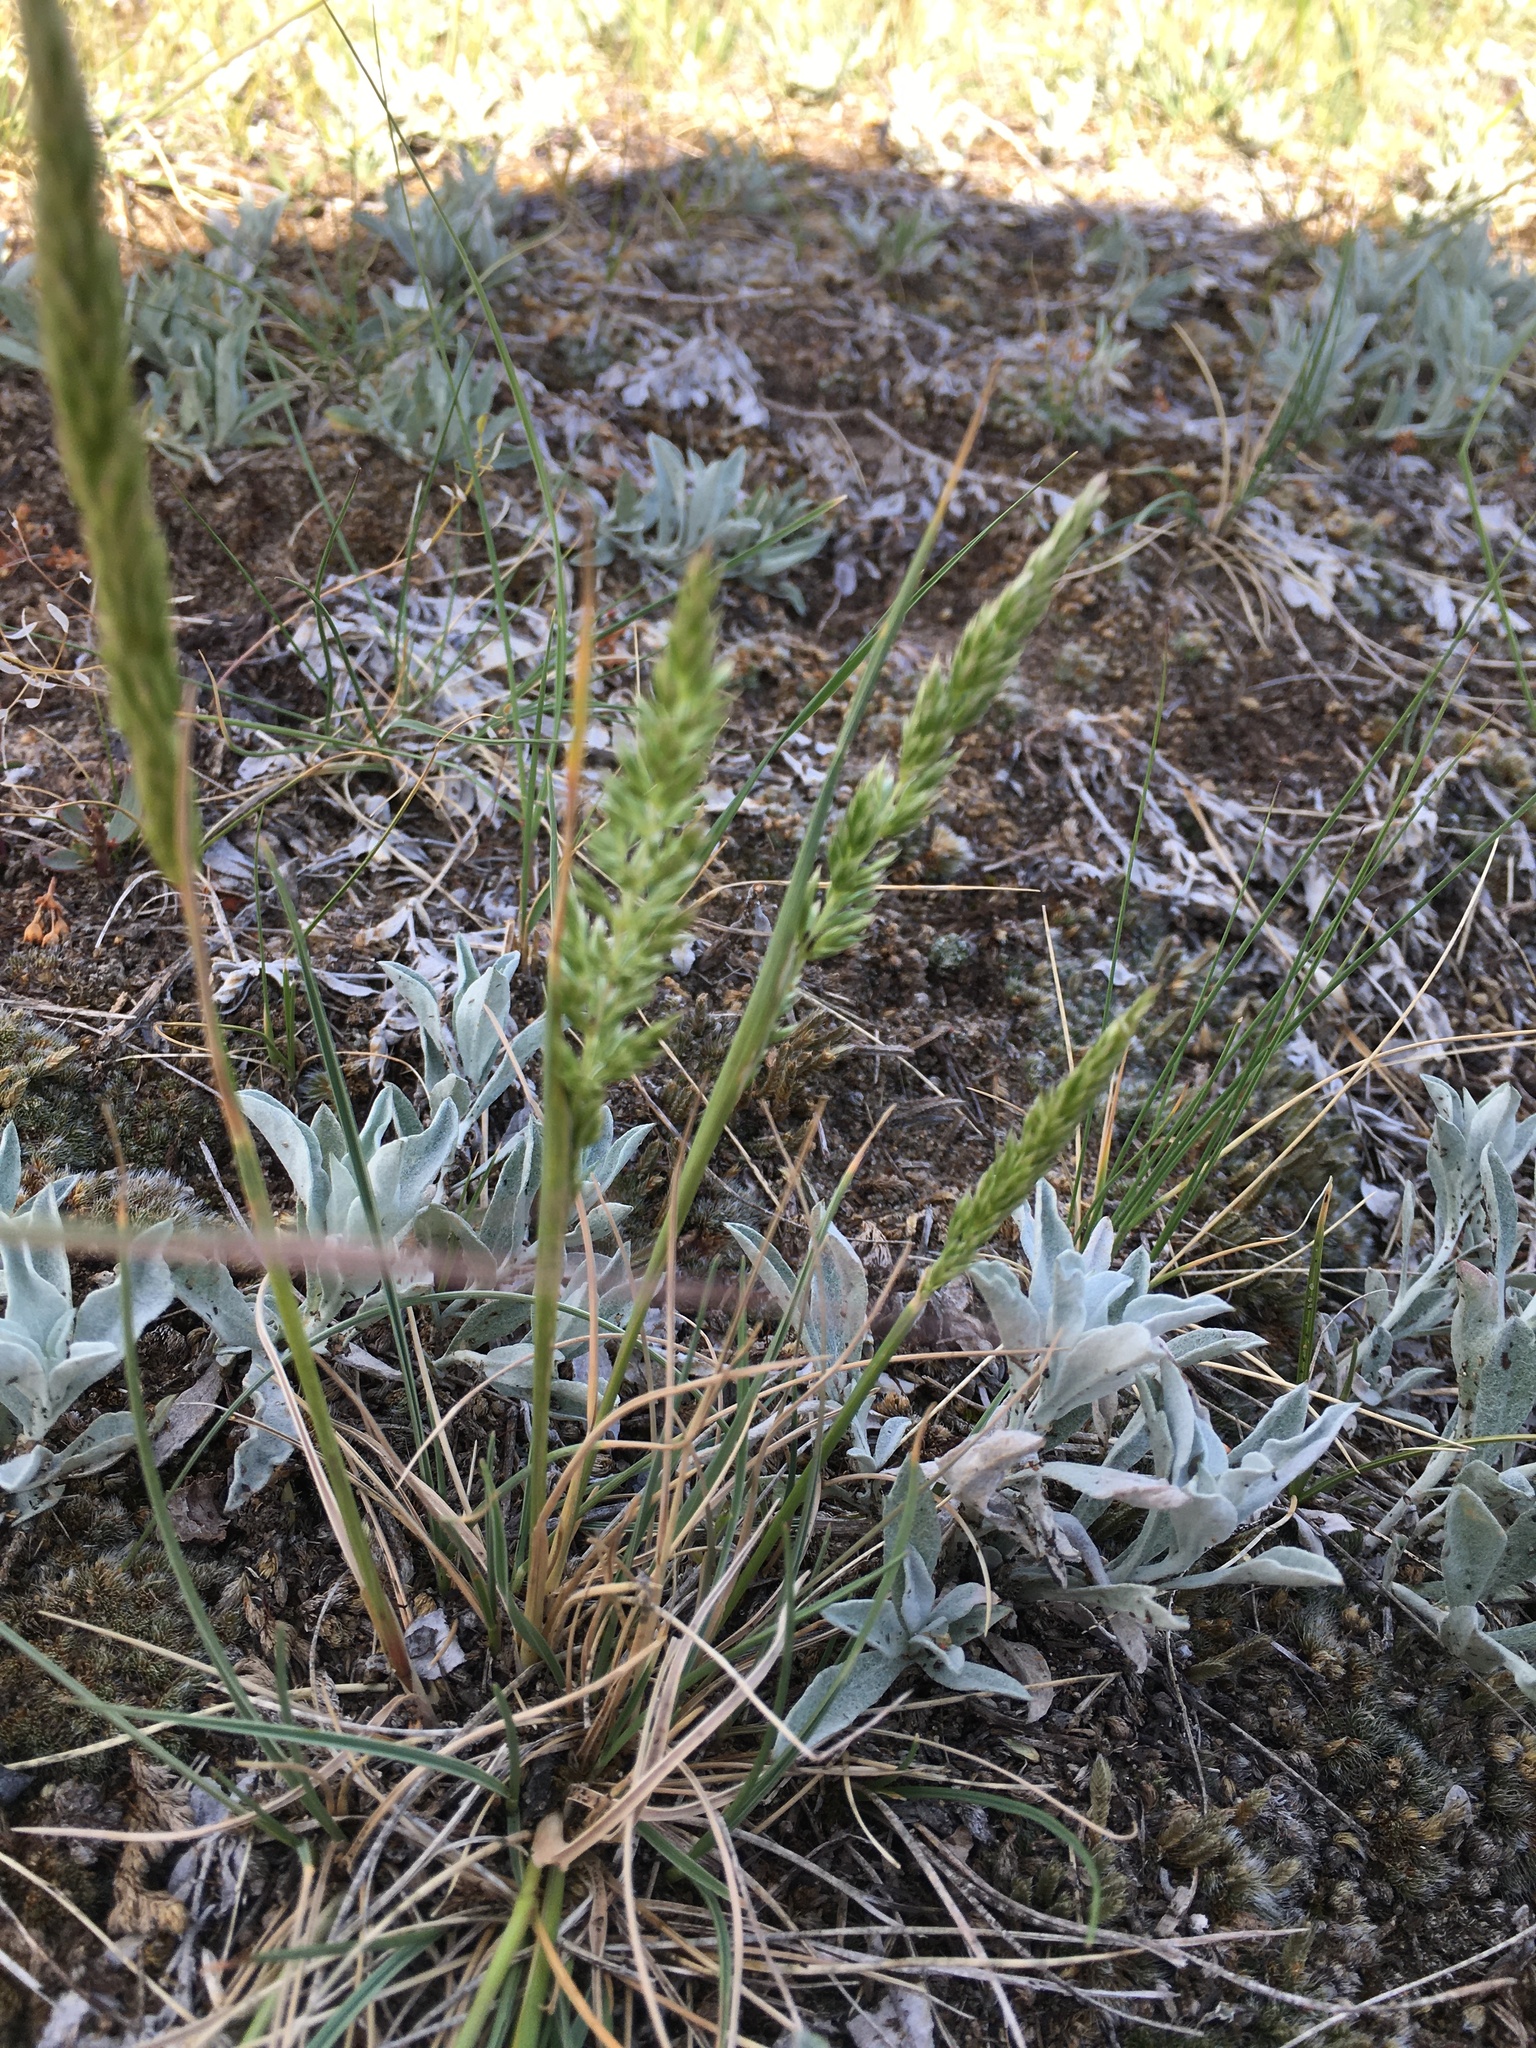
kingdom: Plantae
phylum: Tracheophyta
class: Liliopsida
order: Poales
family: Poaceae
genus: Koeleria
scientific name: Koeleria macrantha
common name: Crested hair-grass
